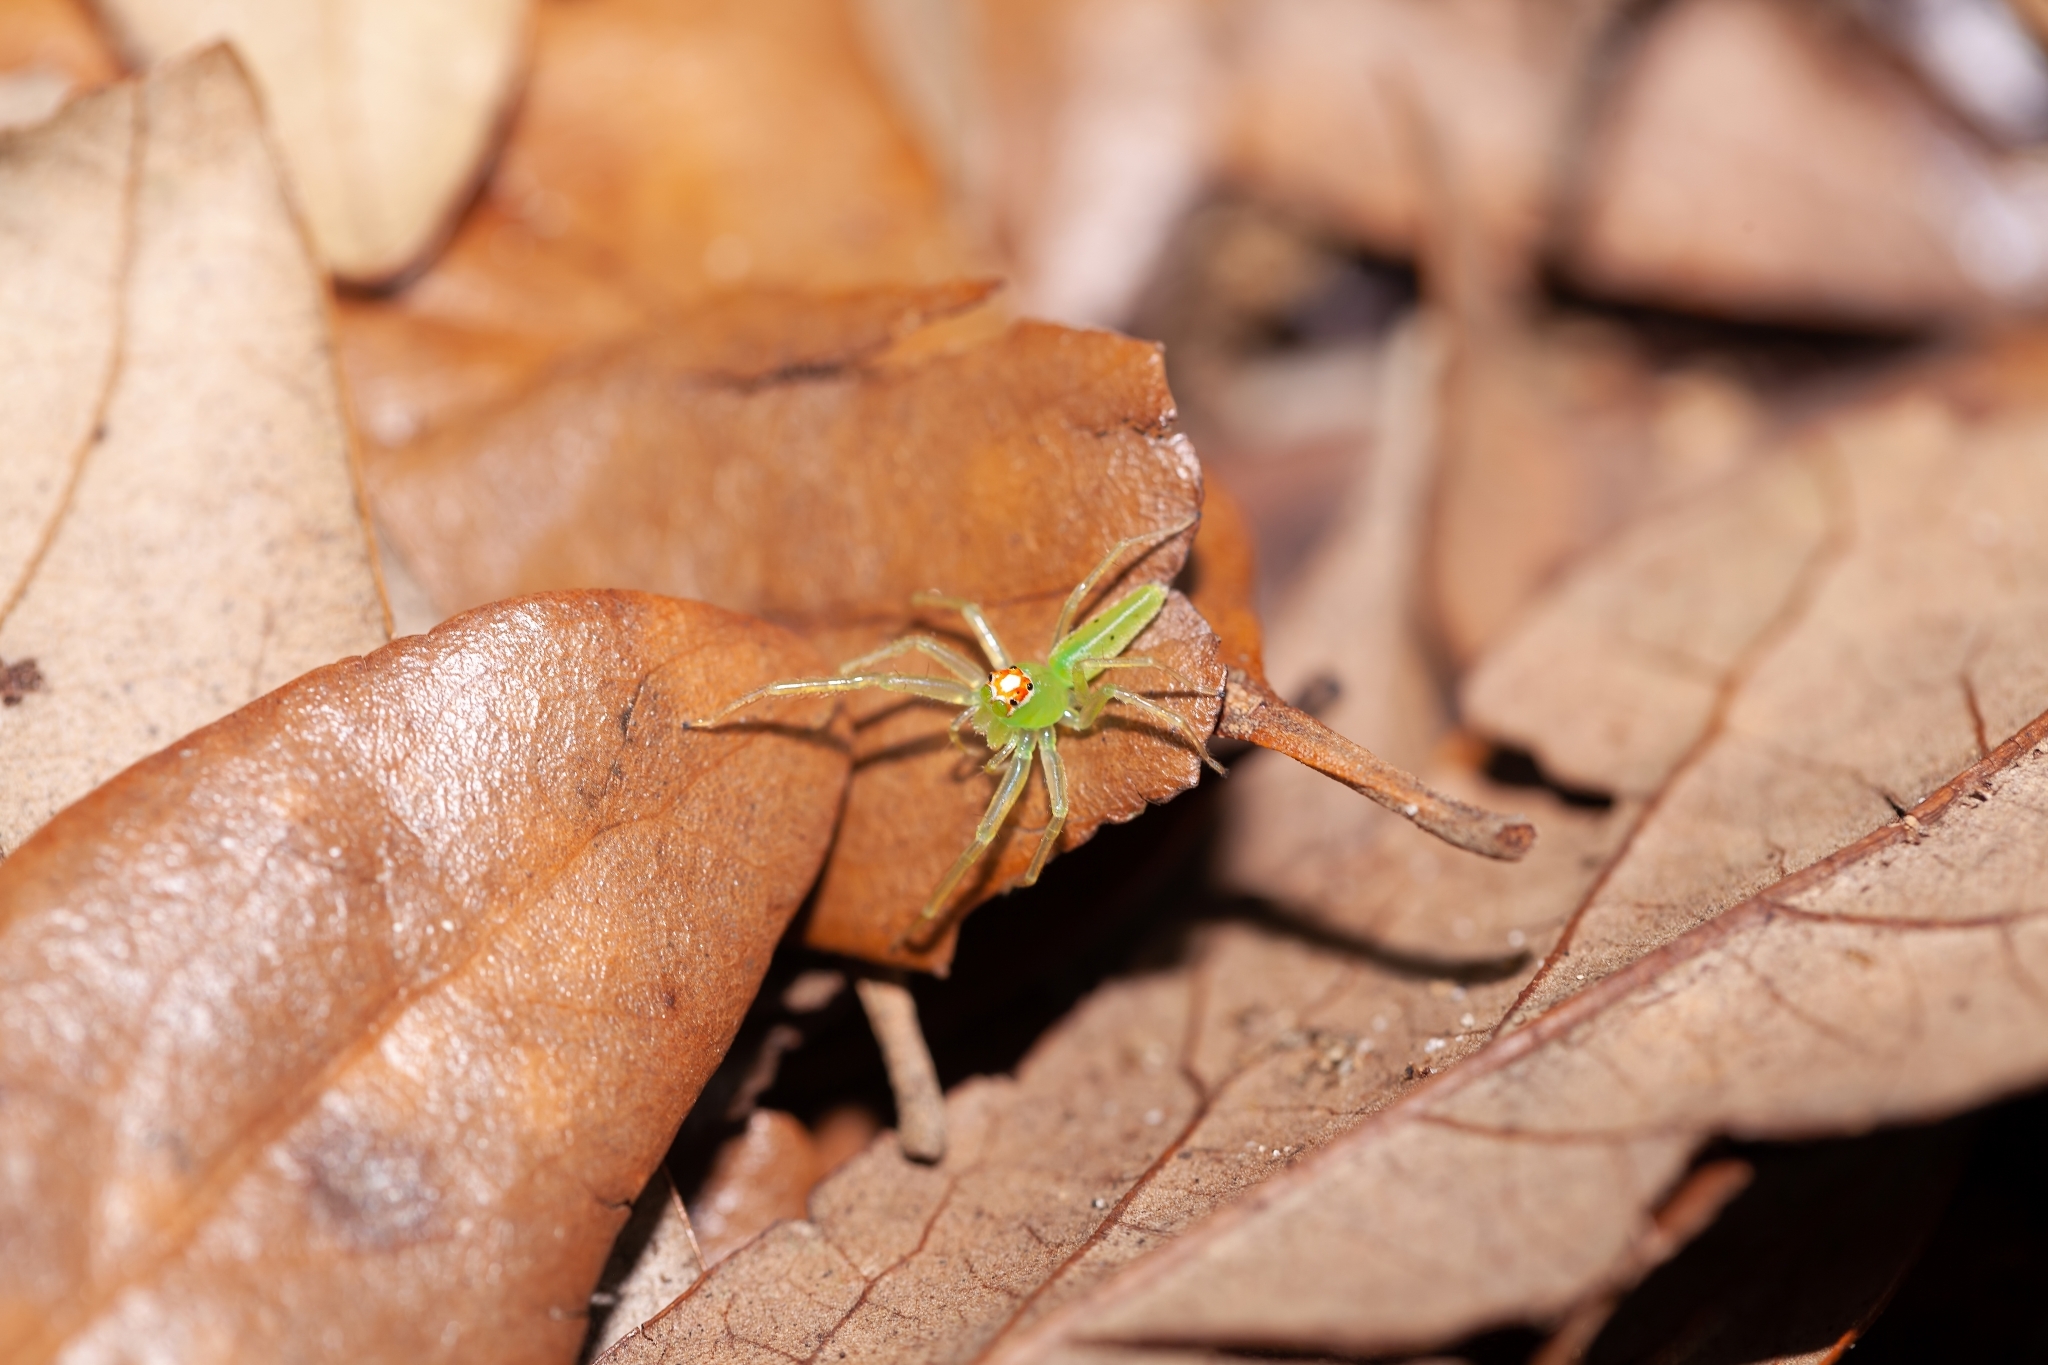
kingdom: Animalia
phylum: Arthropoda
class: Arachnida
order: Araneae
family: Salticidae
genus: Lyssomanes
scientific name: Lyssomanes viridis
